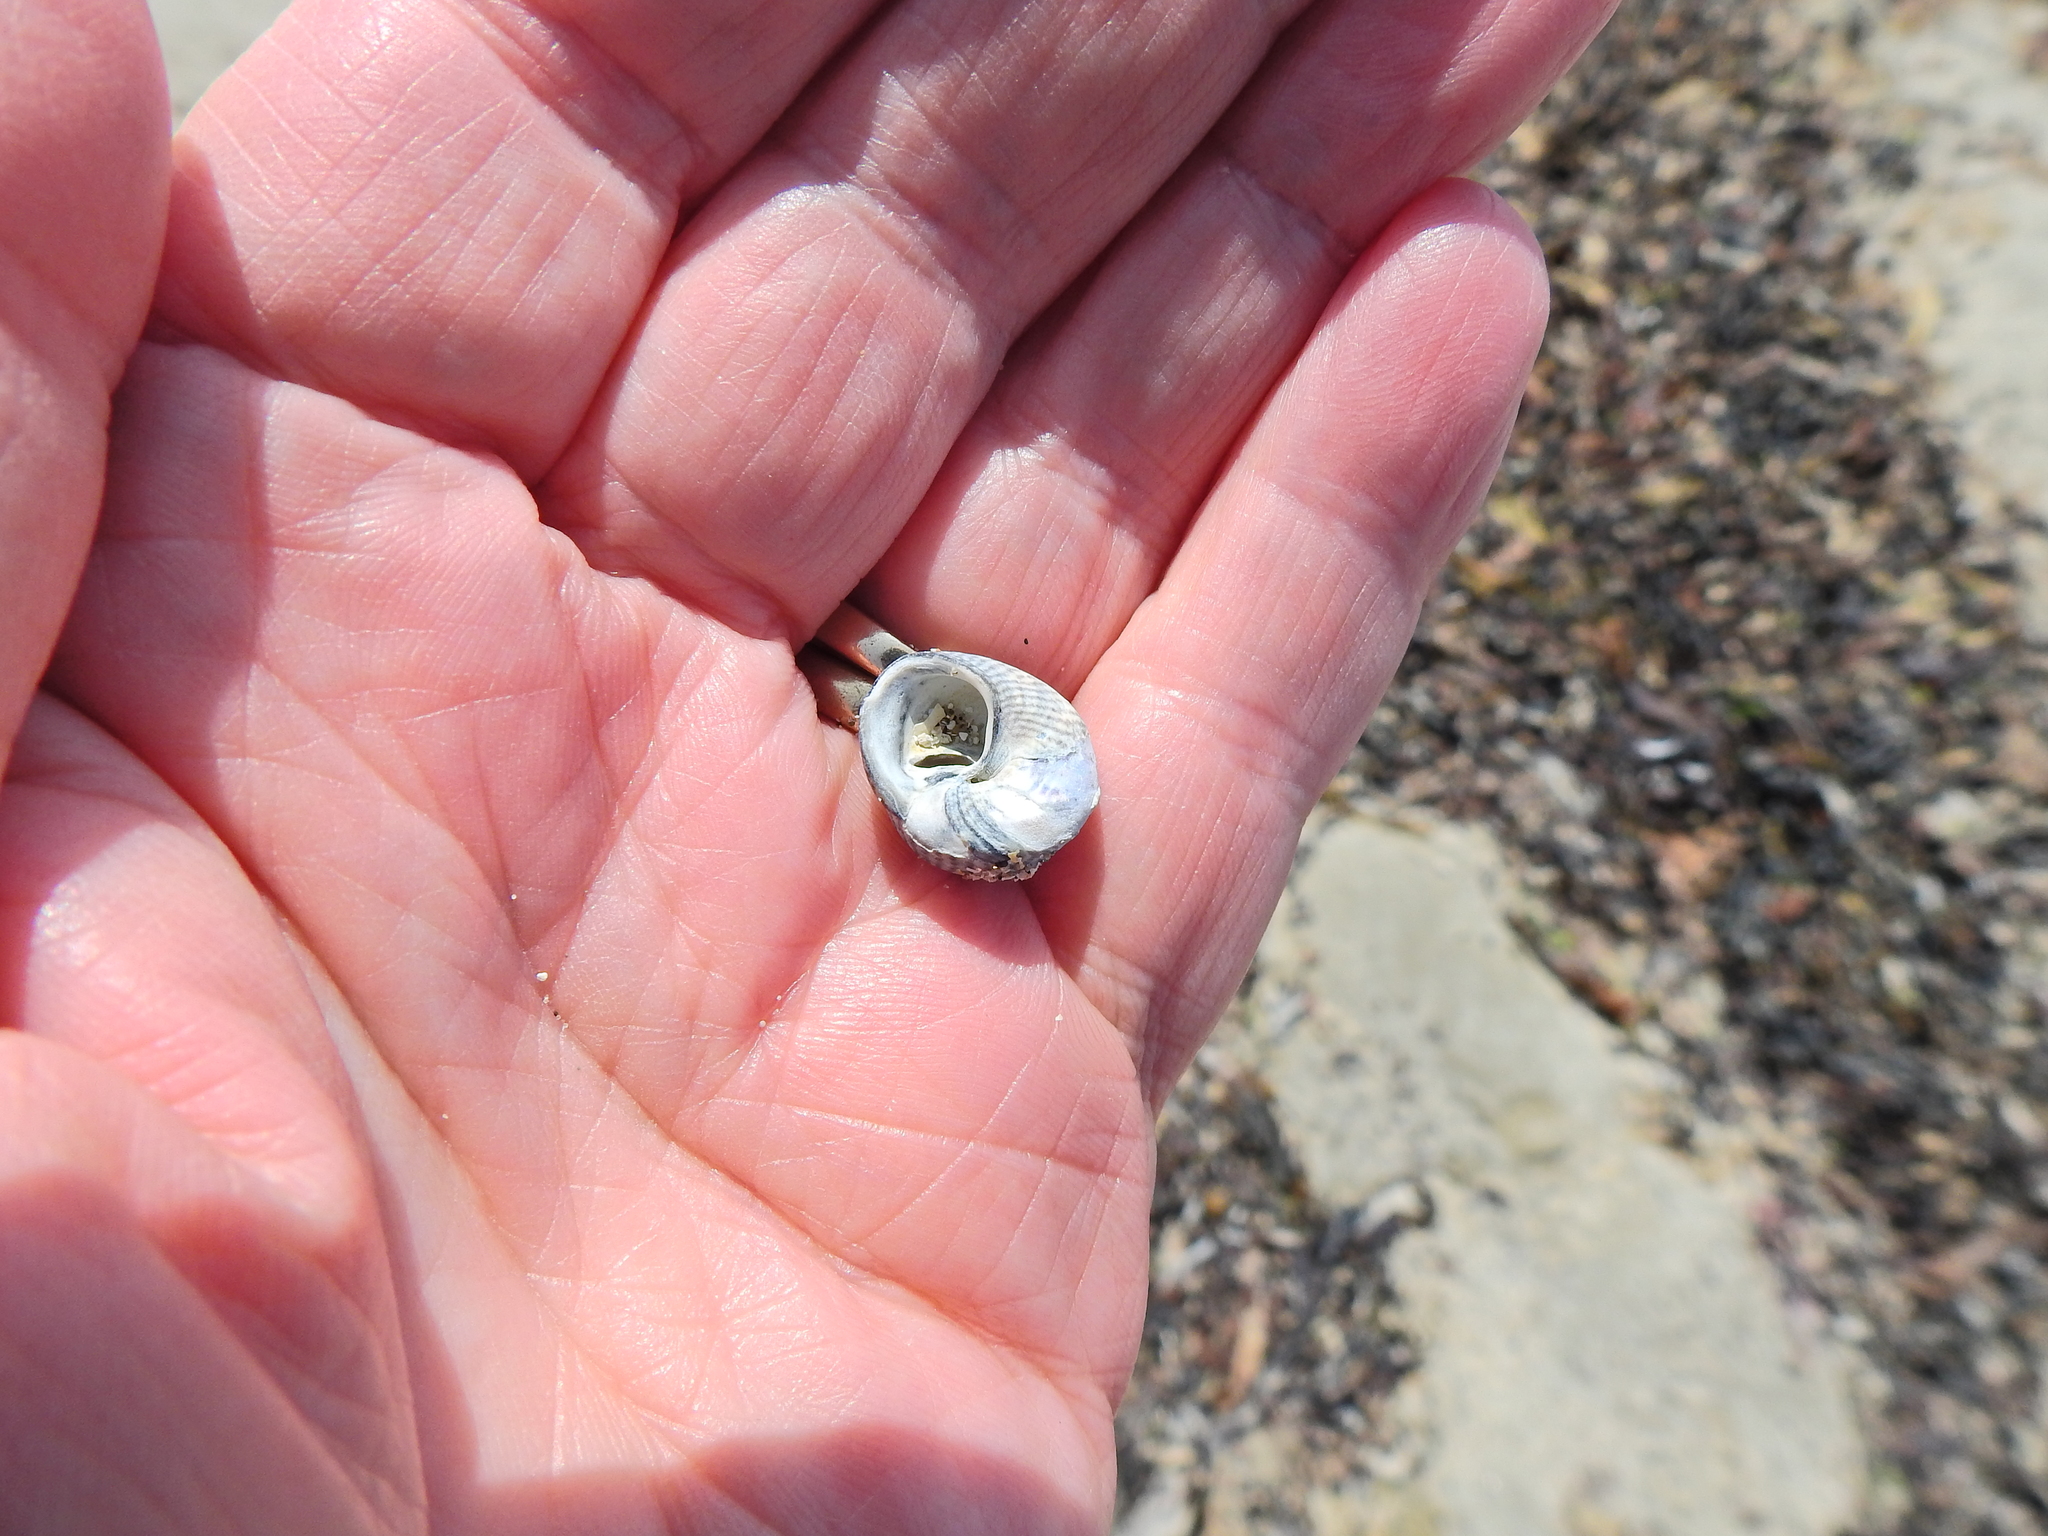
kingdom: Animalia
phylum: Mollusca
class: Gastropoda
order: Trochida
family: Trochidae
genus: Steromphala
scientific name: Steromphala cineraria
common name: Grey top shell
